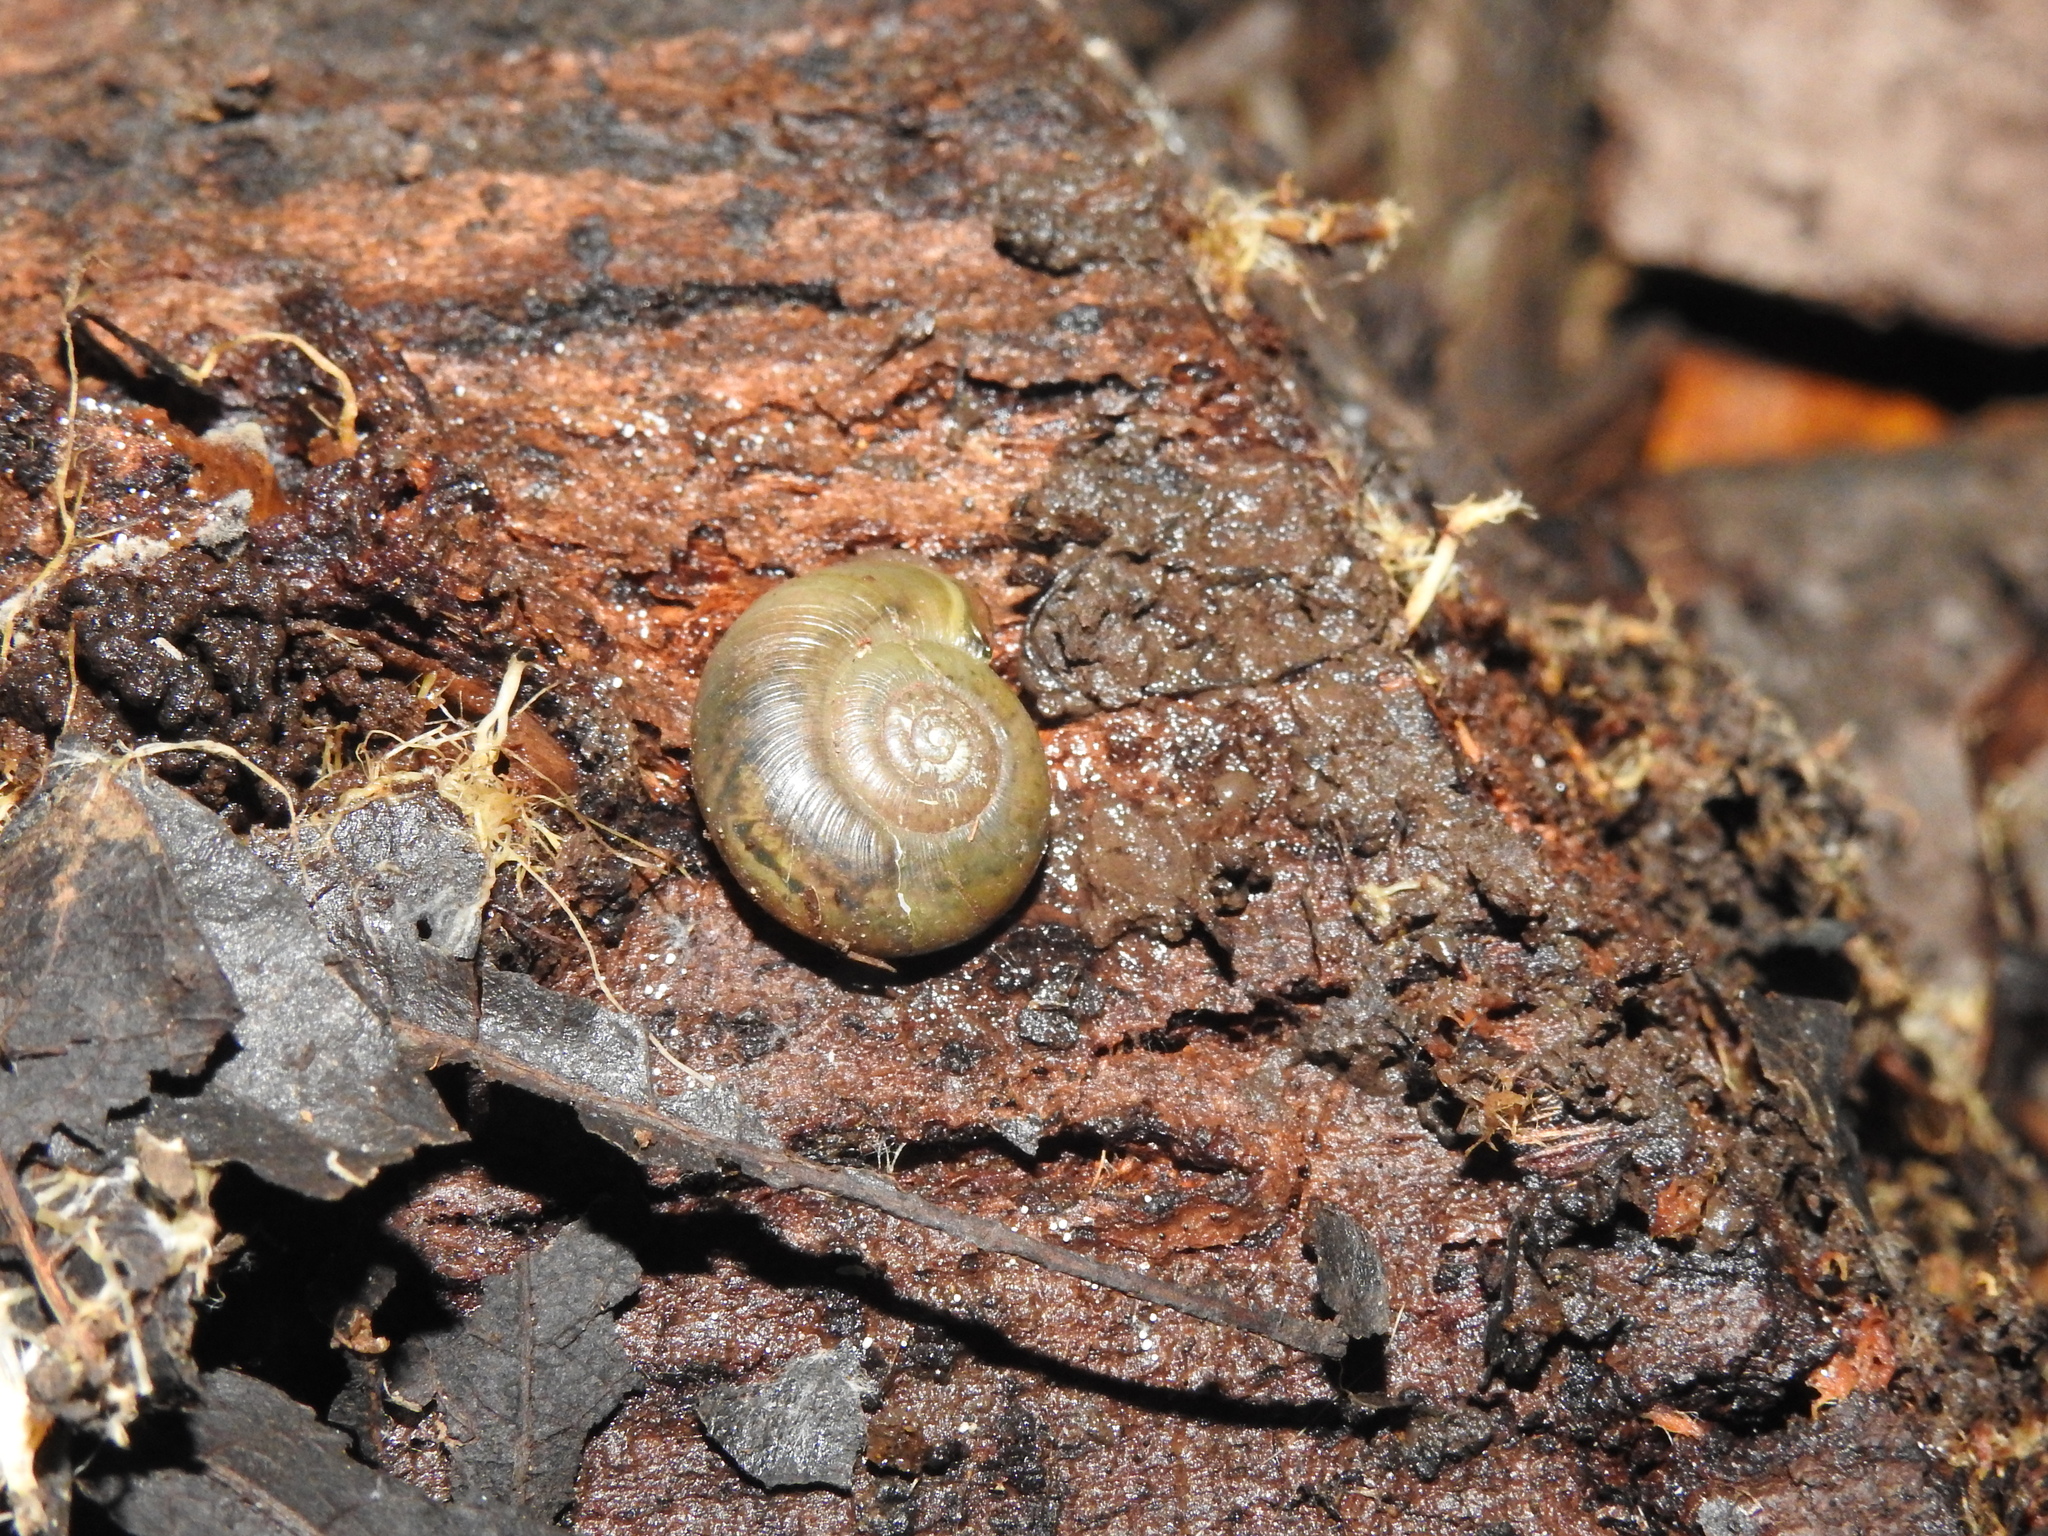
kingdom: Animalia
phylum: Mollusca
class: Gastropoda
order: Stylommatophora
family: Haplotrematidae
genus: Haplotrema
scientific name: Haplotrema minimum
